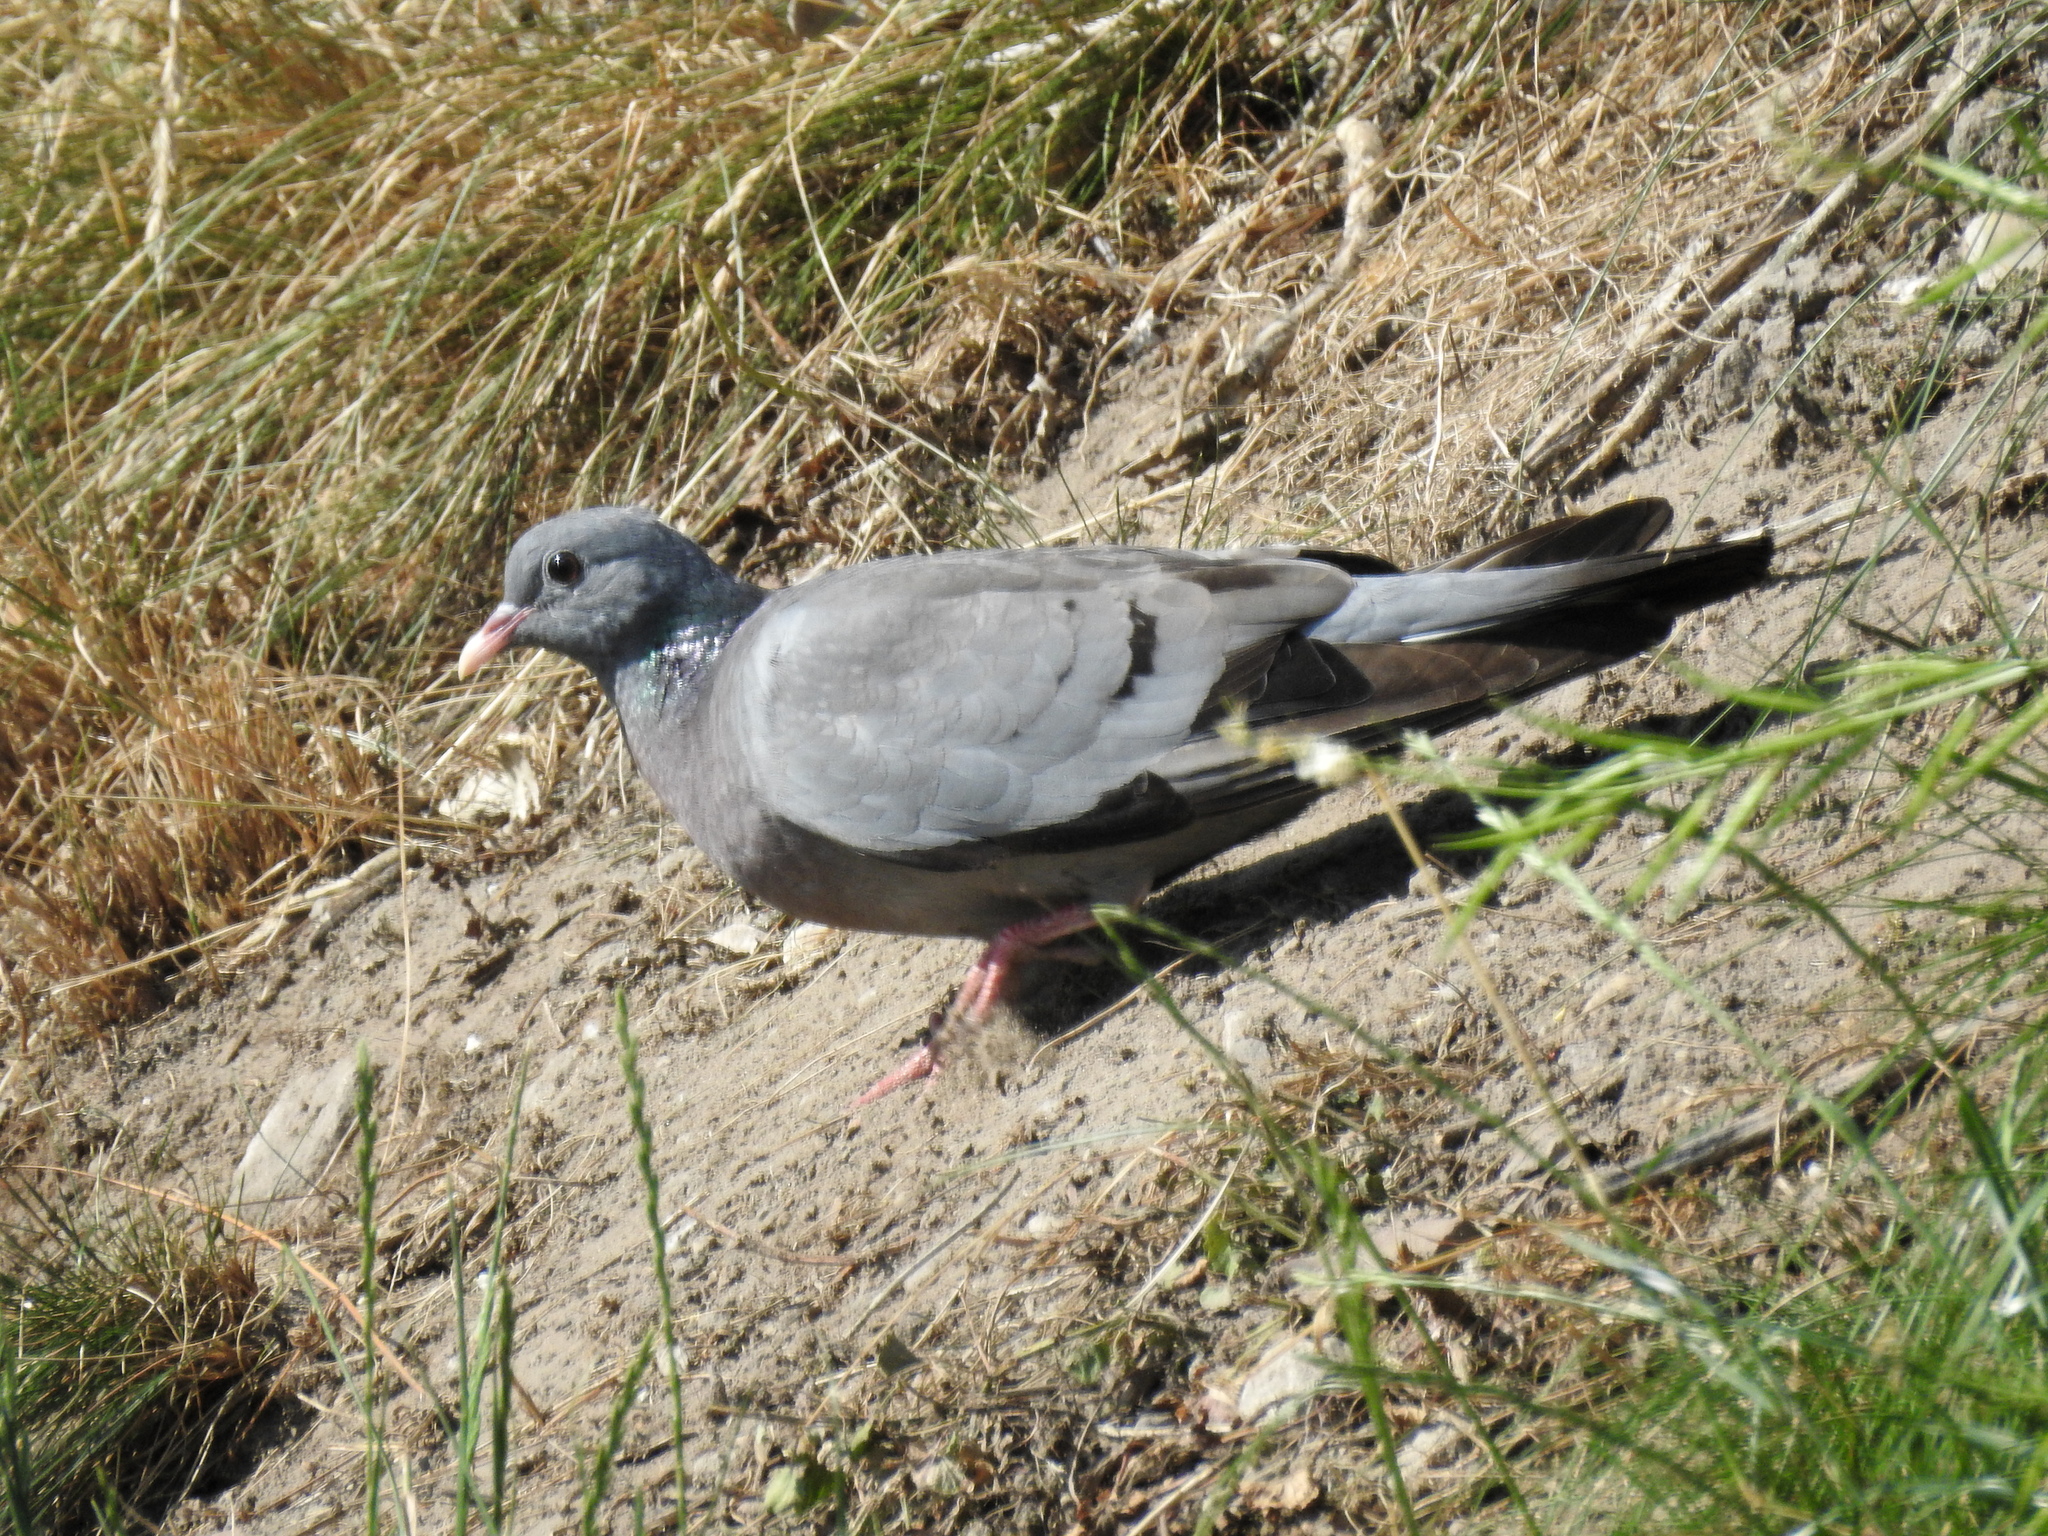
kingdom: Animalia
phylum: Chordata
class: Aves
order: Columbiformes
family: Columbidae
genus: Columba
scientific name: Columba oenas
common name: Stock dove
